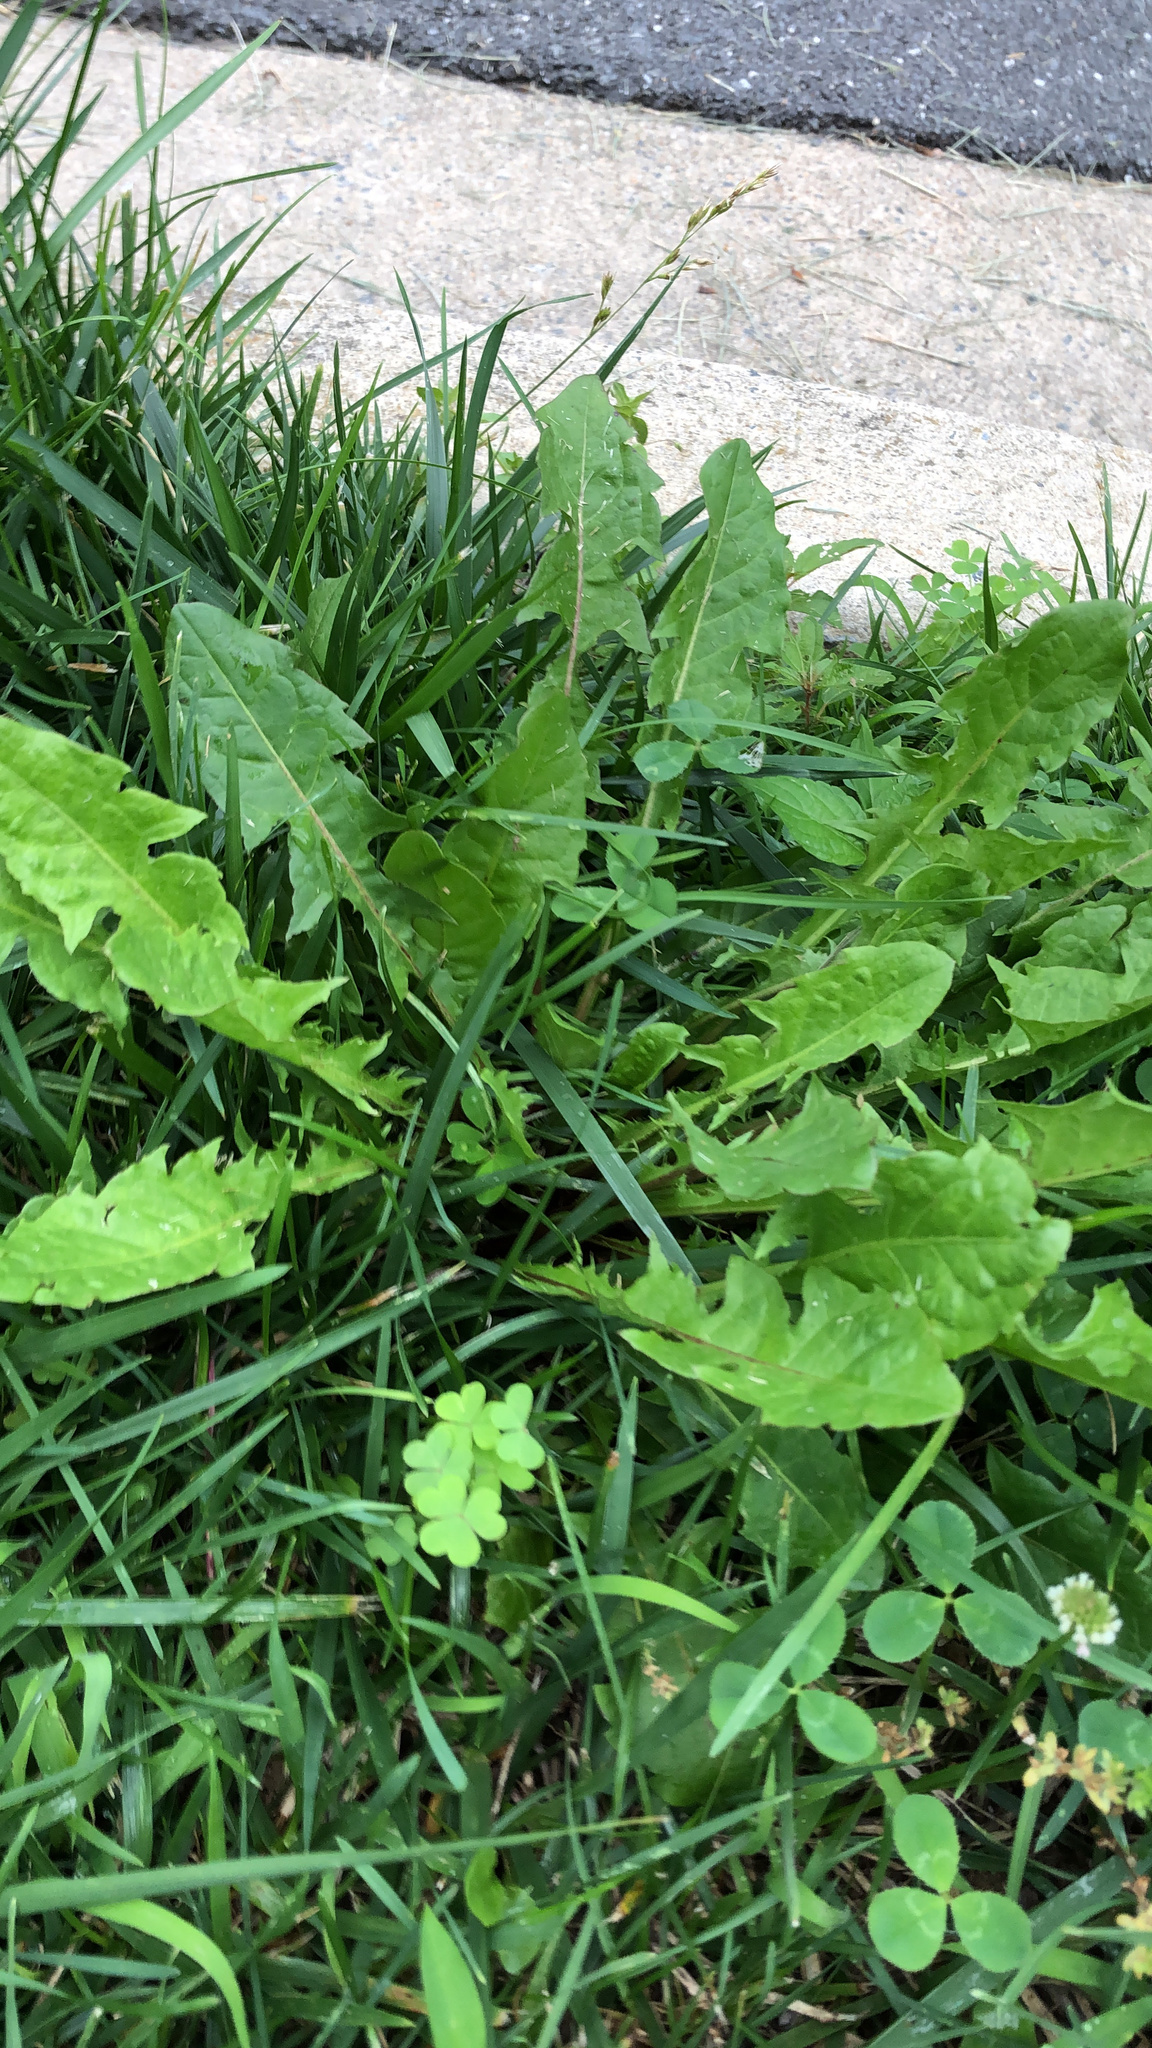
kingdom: Plantae
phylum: Tracheophyta
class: Magnoliopsida
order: Asterales
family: Asteraceae
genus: Taraxacum
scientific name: Taraxacum officinale
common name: Common dandelion
